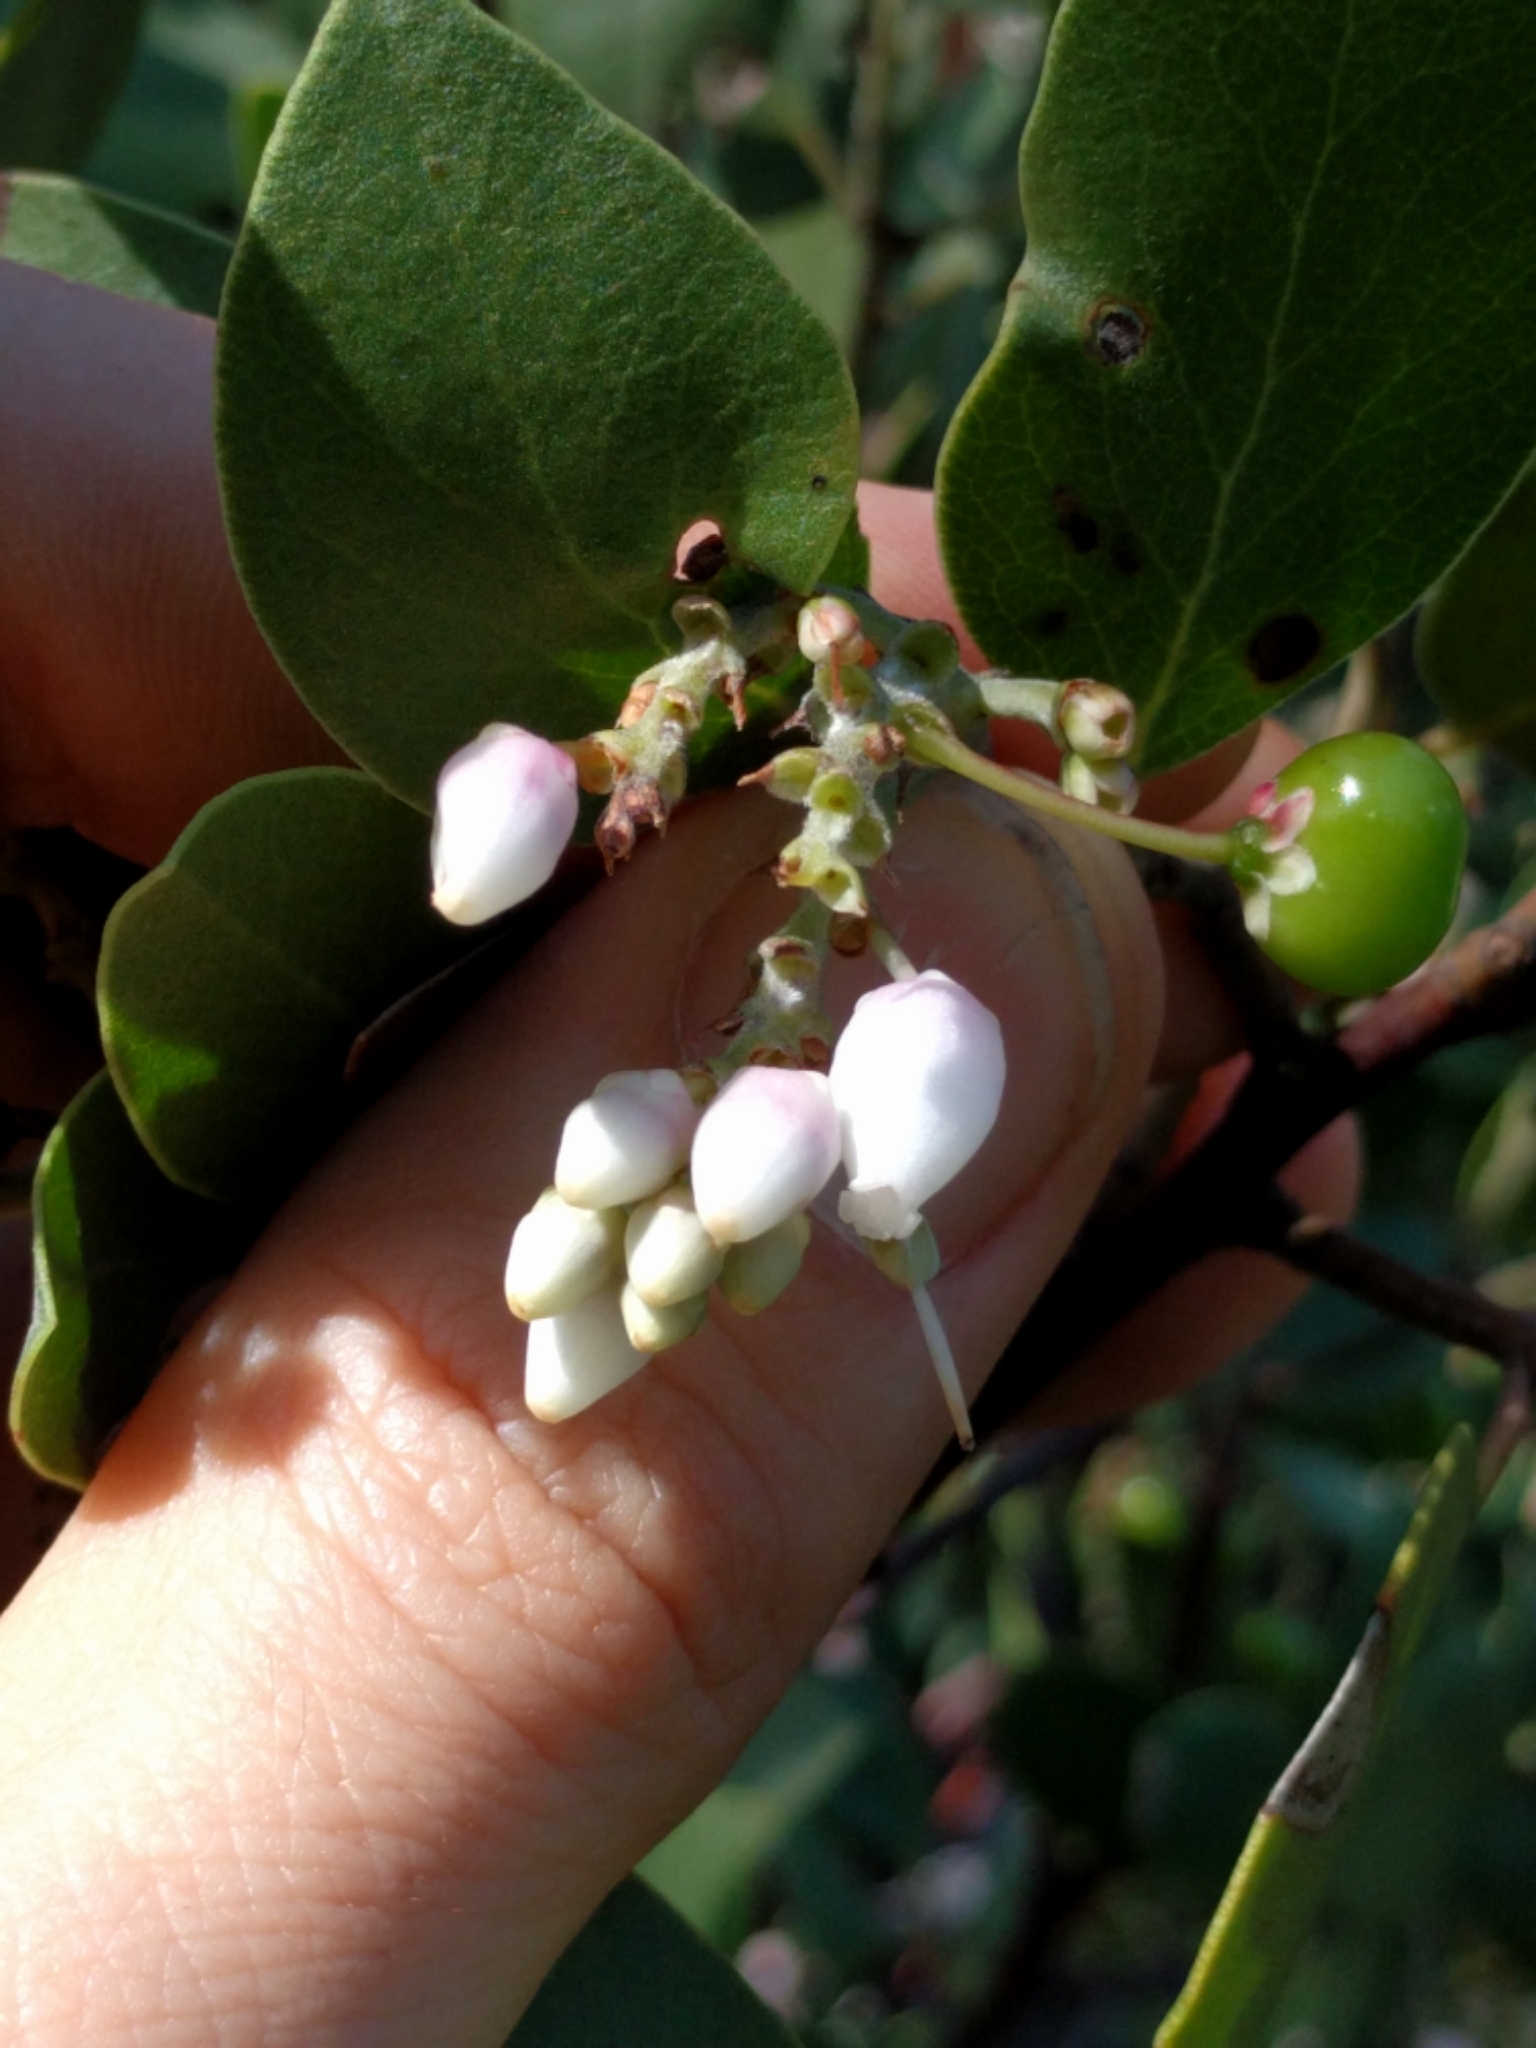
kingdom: Plantae
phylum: Tracheophyta
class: Magnoliopsida
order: Ericales
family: Ericaceae
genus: Arctostaphylos
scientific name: Arctostaphylos manzanita
